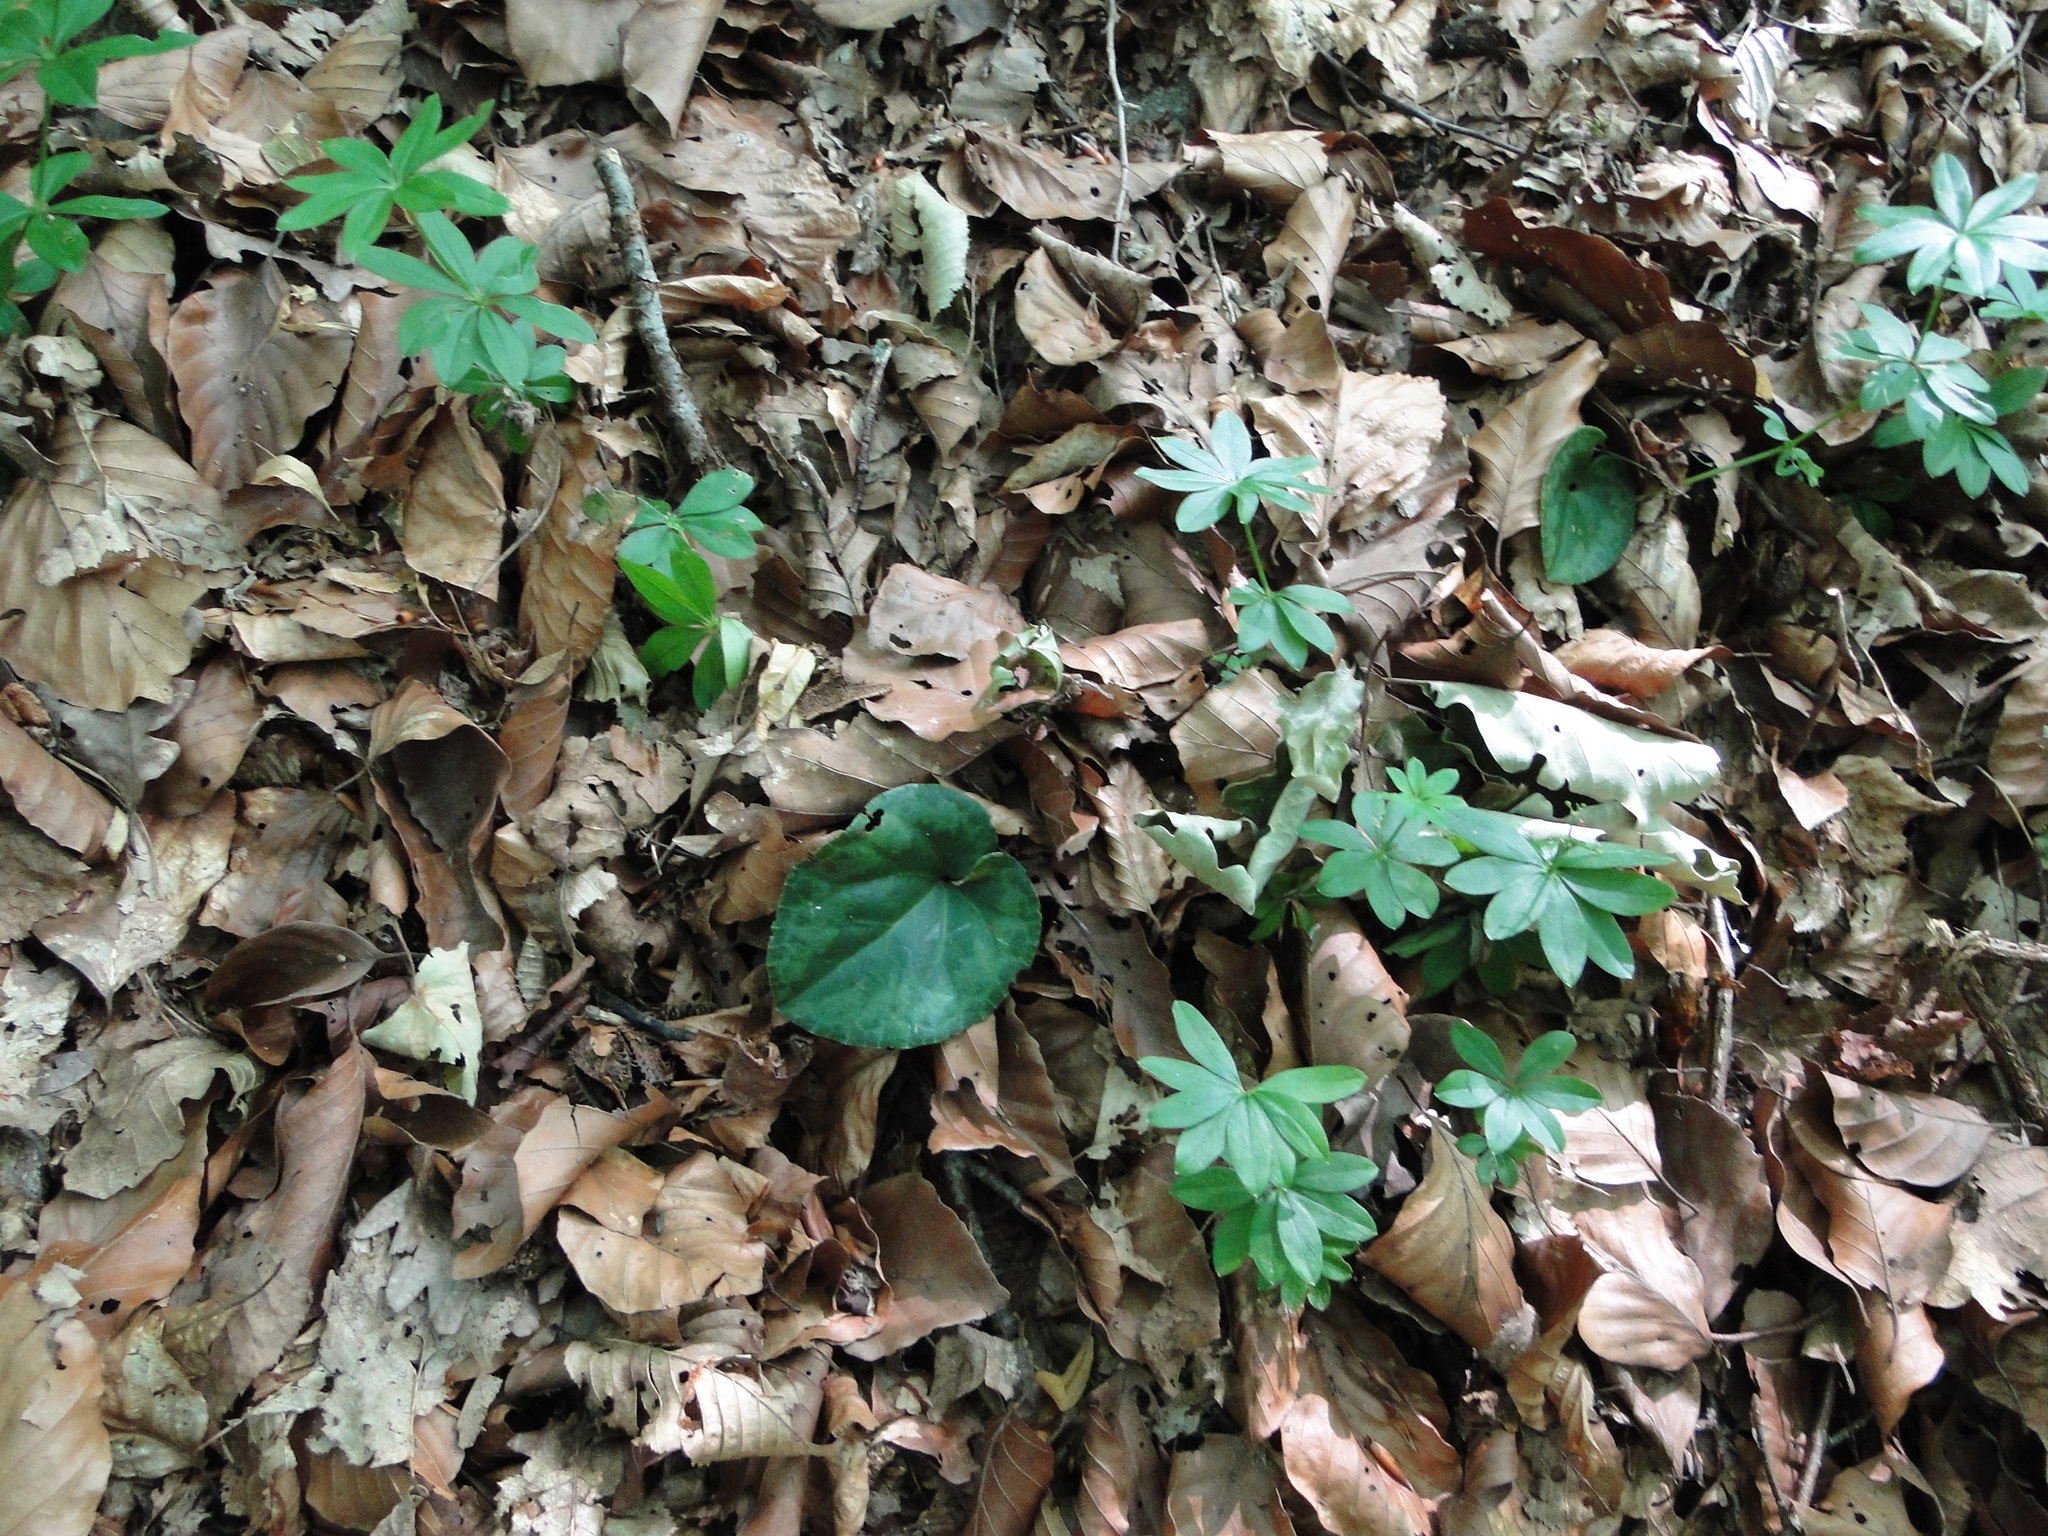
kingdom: Plantae
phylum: Tracheophyta
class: Magnoliopsida
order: Ericales
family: Primulaceae
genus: Cyclamen
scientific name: Cyclamen purpurascens
